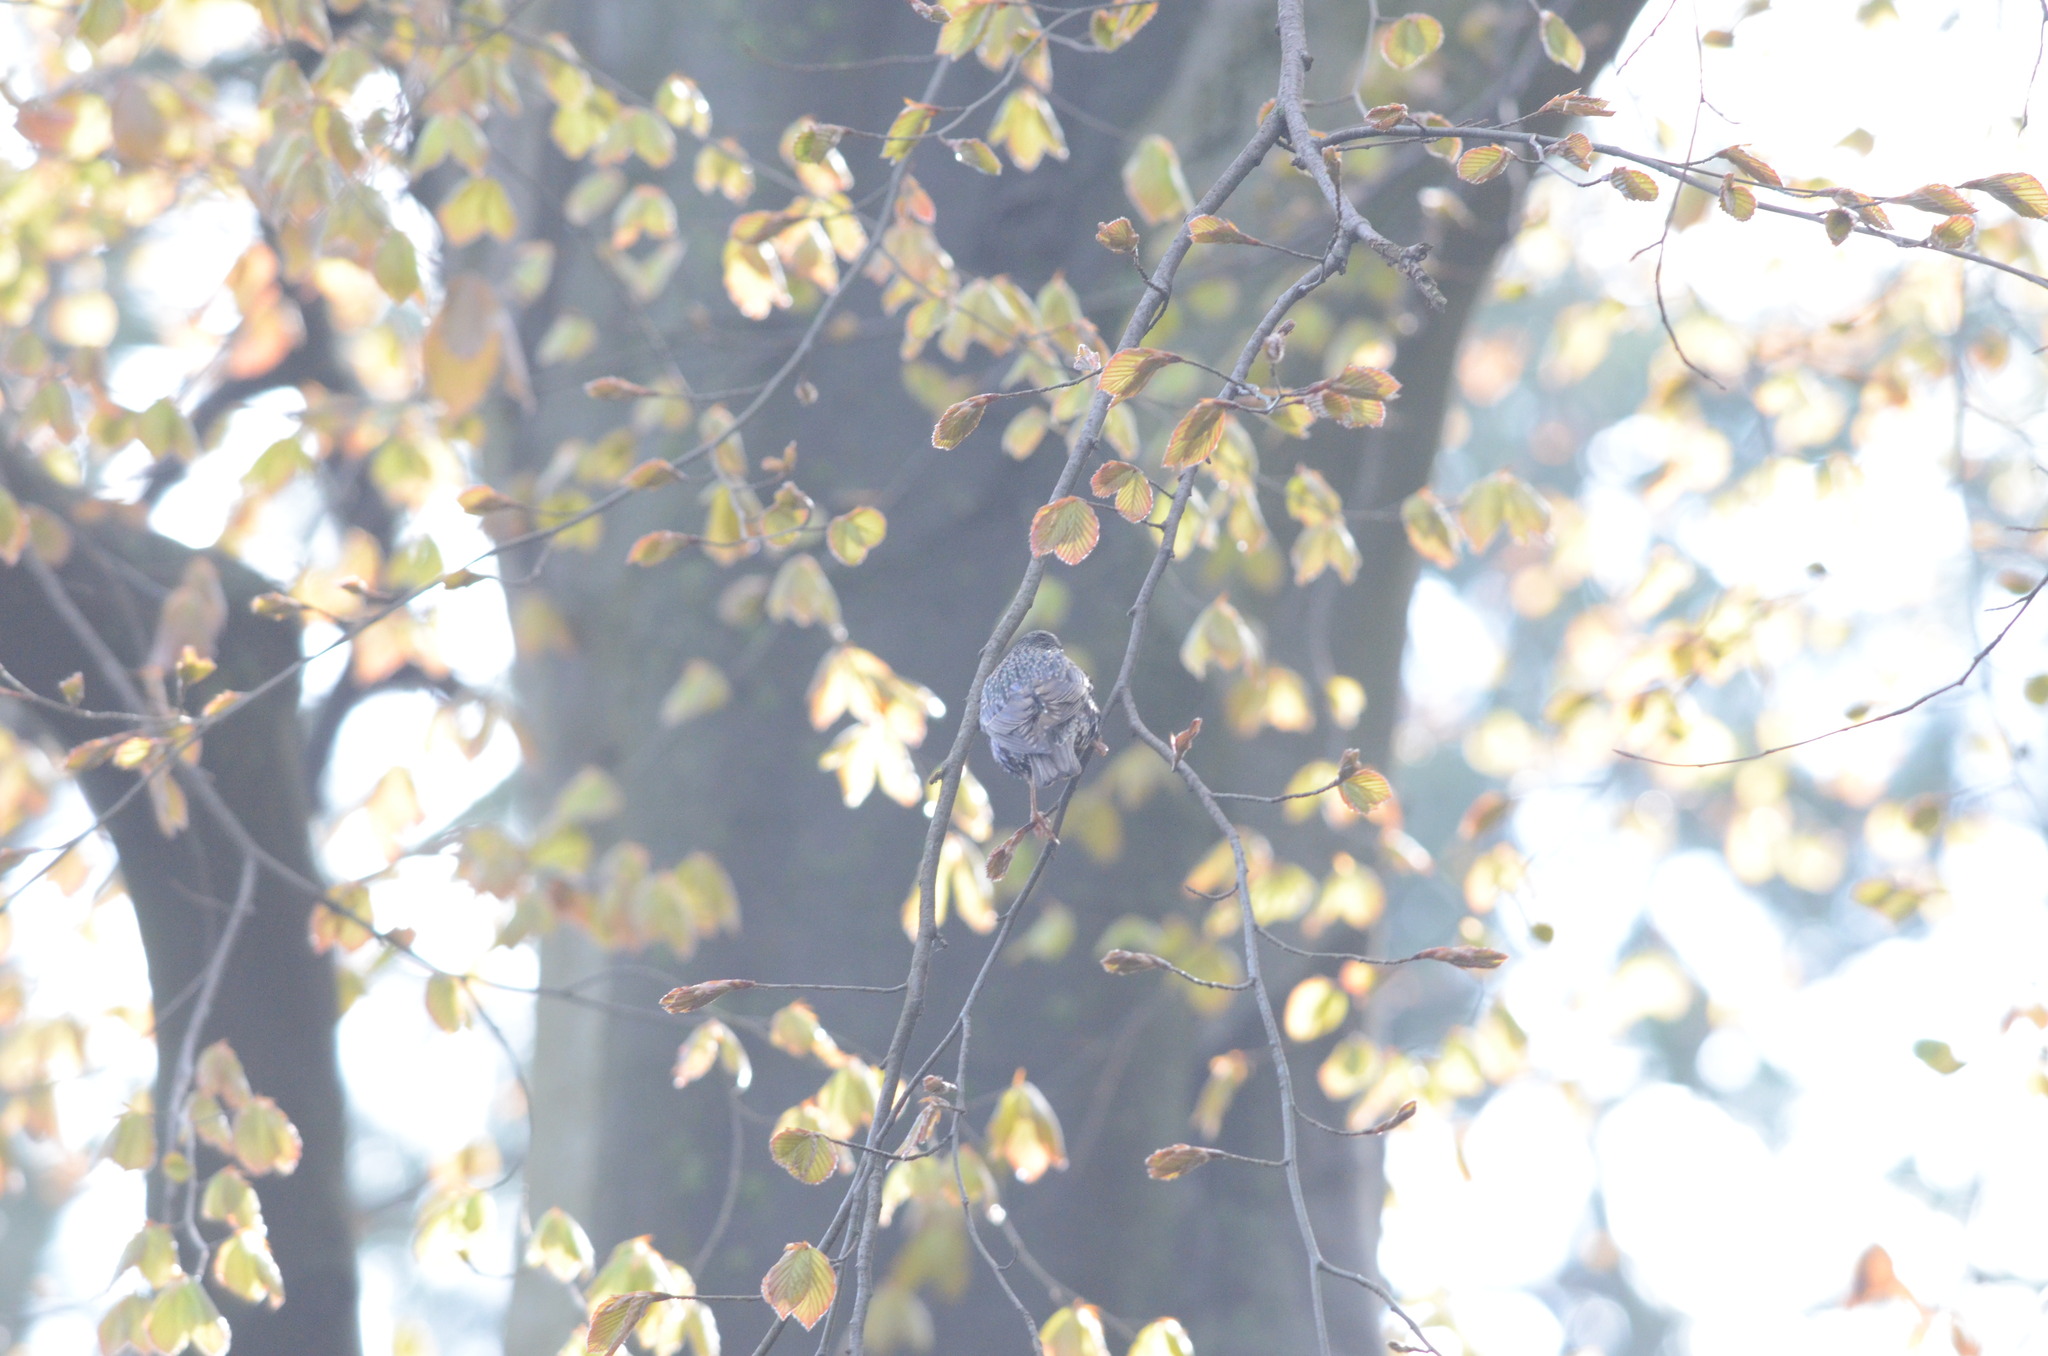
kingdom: Animalia
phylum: Chordata
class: Aves
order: Passeriformes
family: Sturnidae
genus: Sturnus
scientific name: Sturnus vulgaris
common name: Common starling
